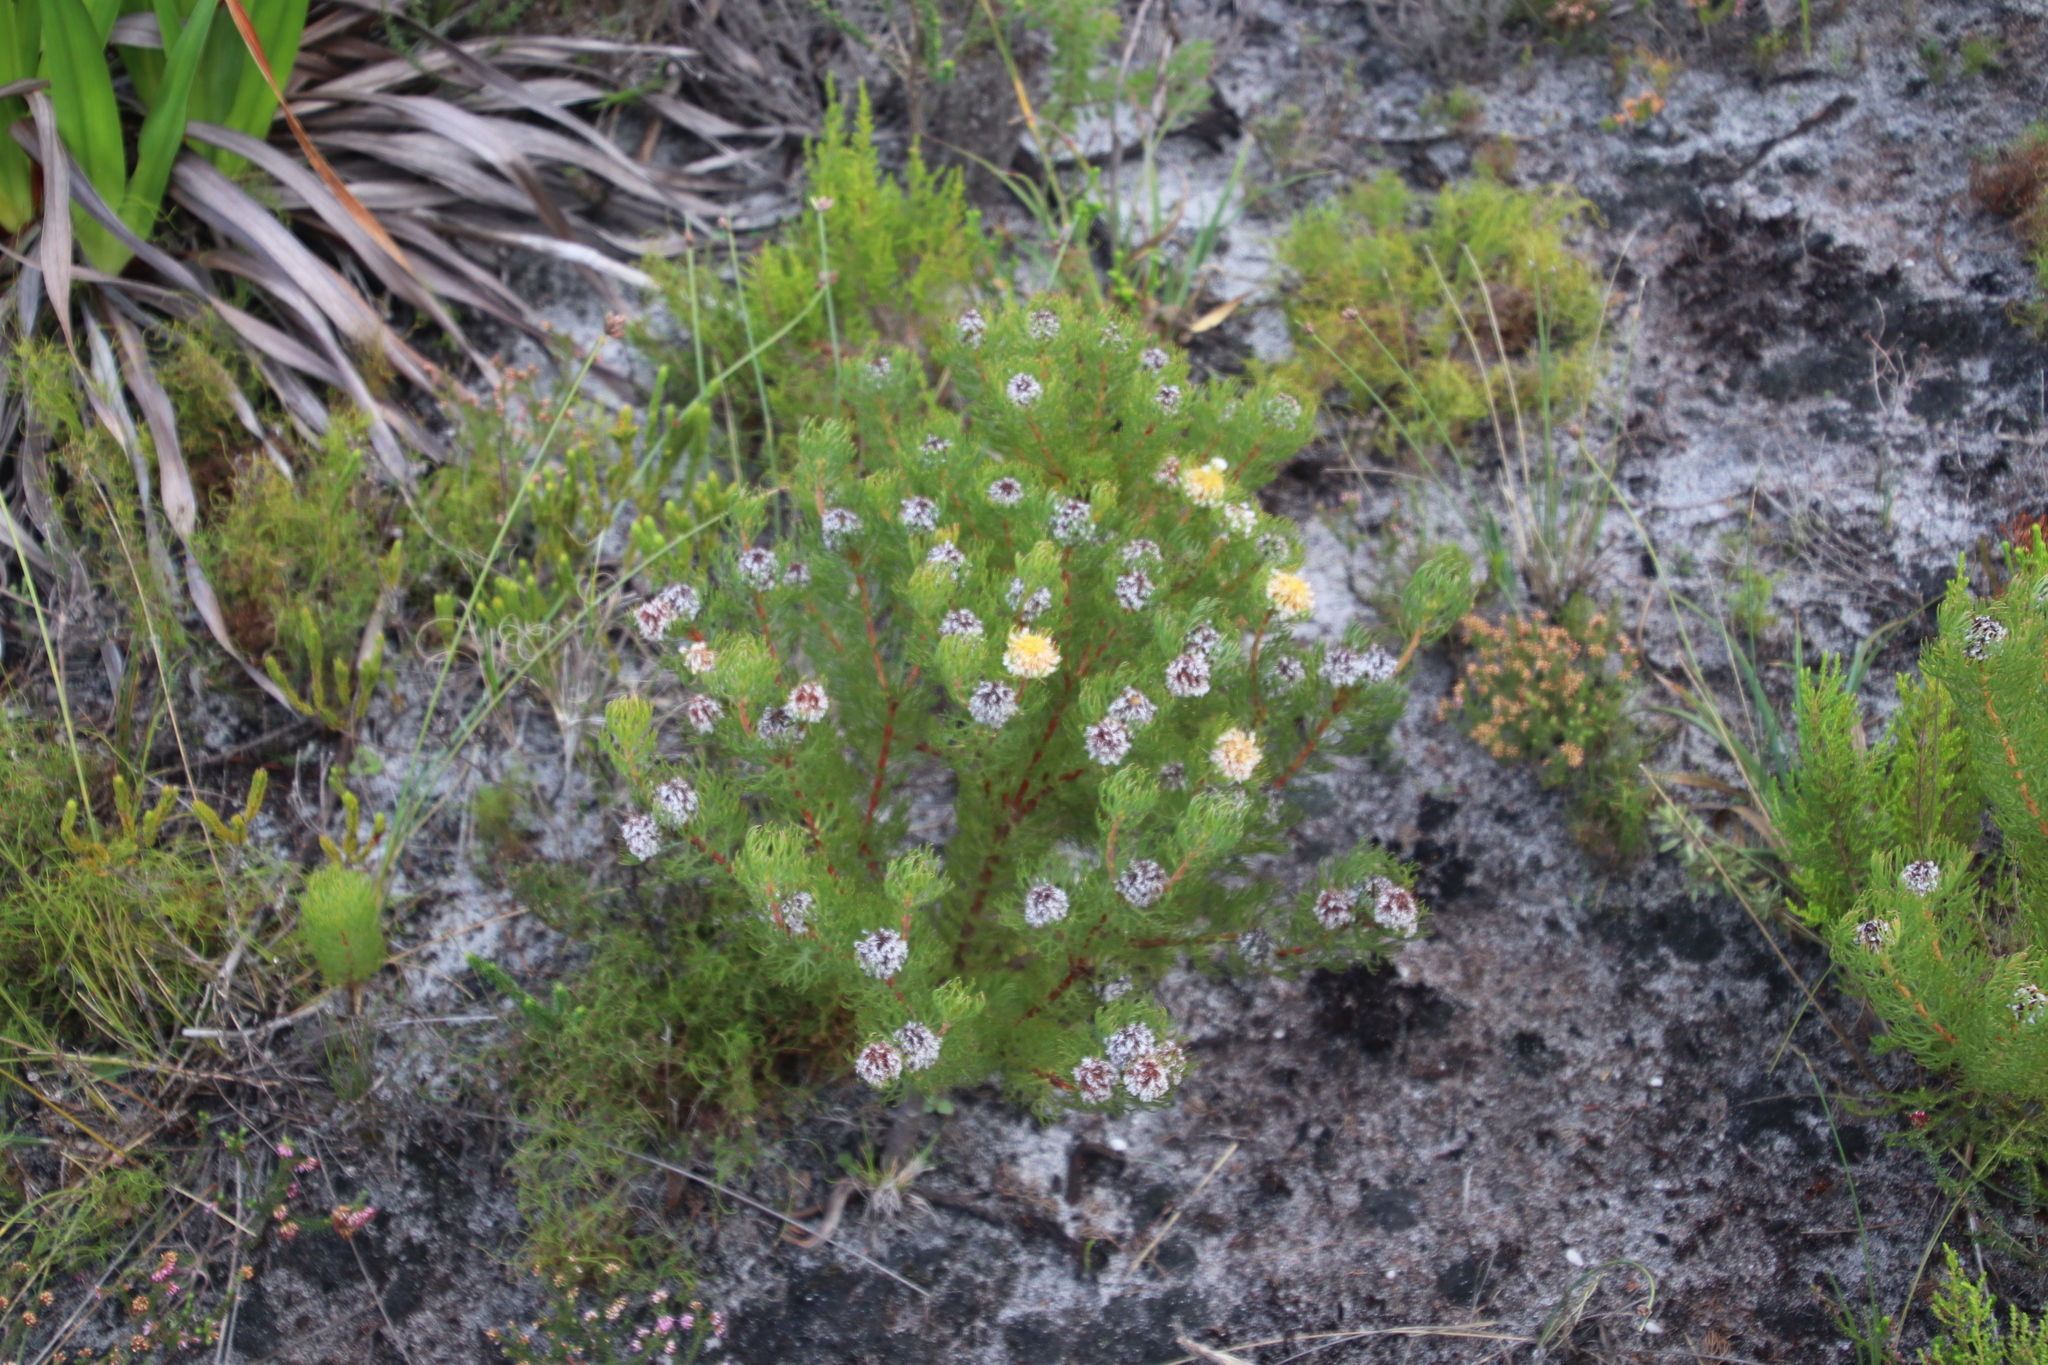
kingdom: Plantae
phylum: Tracheophyta
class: Magnoliopsida
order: Proteales
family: Proteaceae
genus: Serruria
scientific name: Serruria villosa
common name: Golden spiderhead
